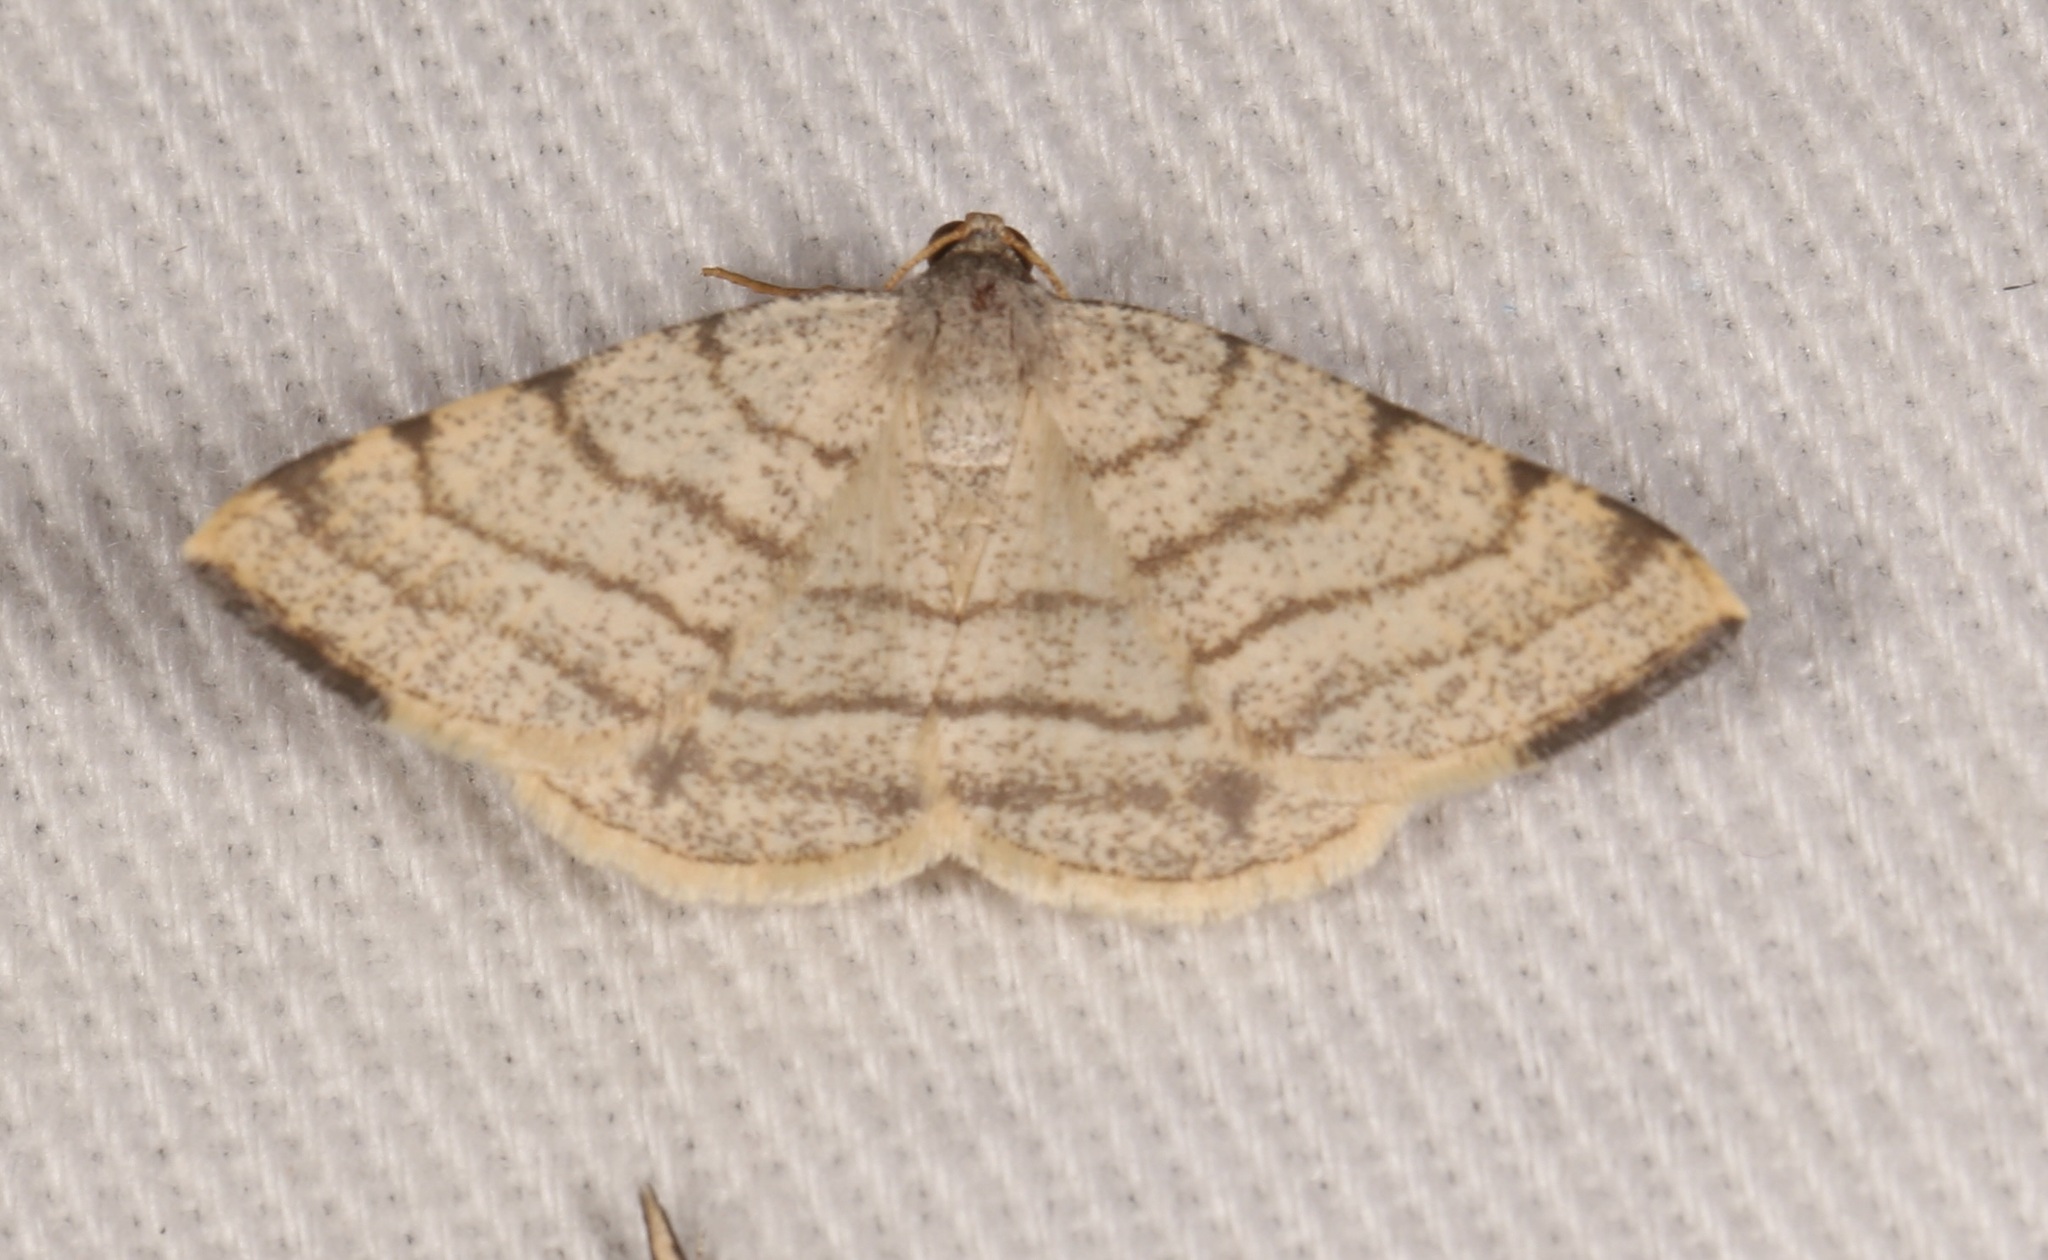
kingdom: Animalia
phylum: Arthropoda
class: Insecta
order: Lepidoptera
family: Geometridae
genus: Macaria
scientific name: Macaria octolineata
